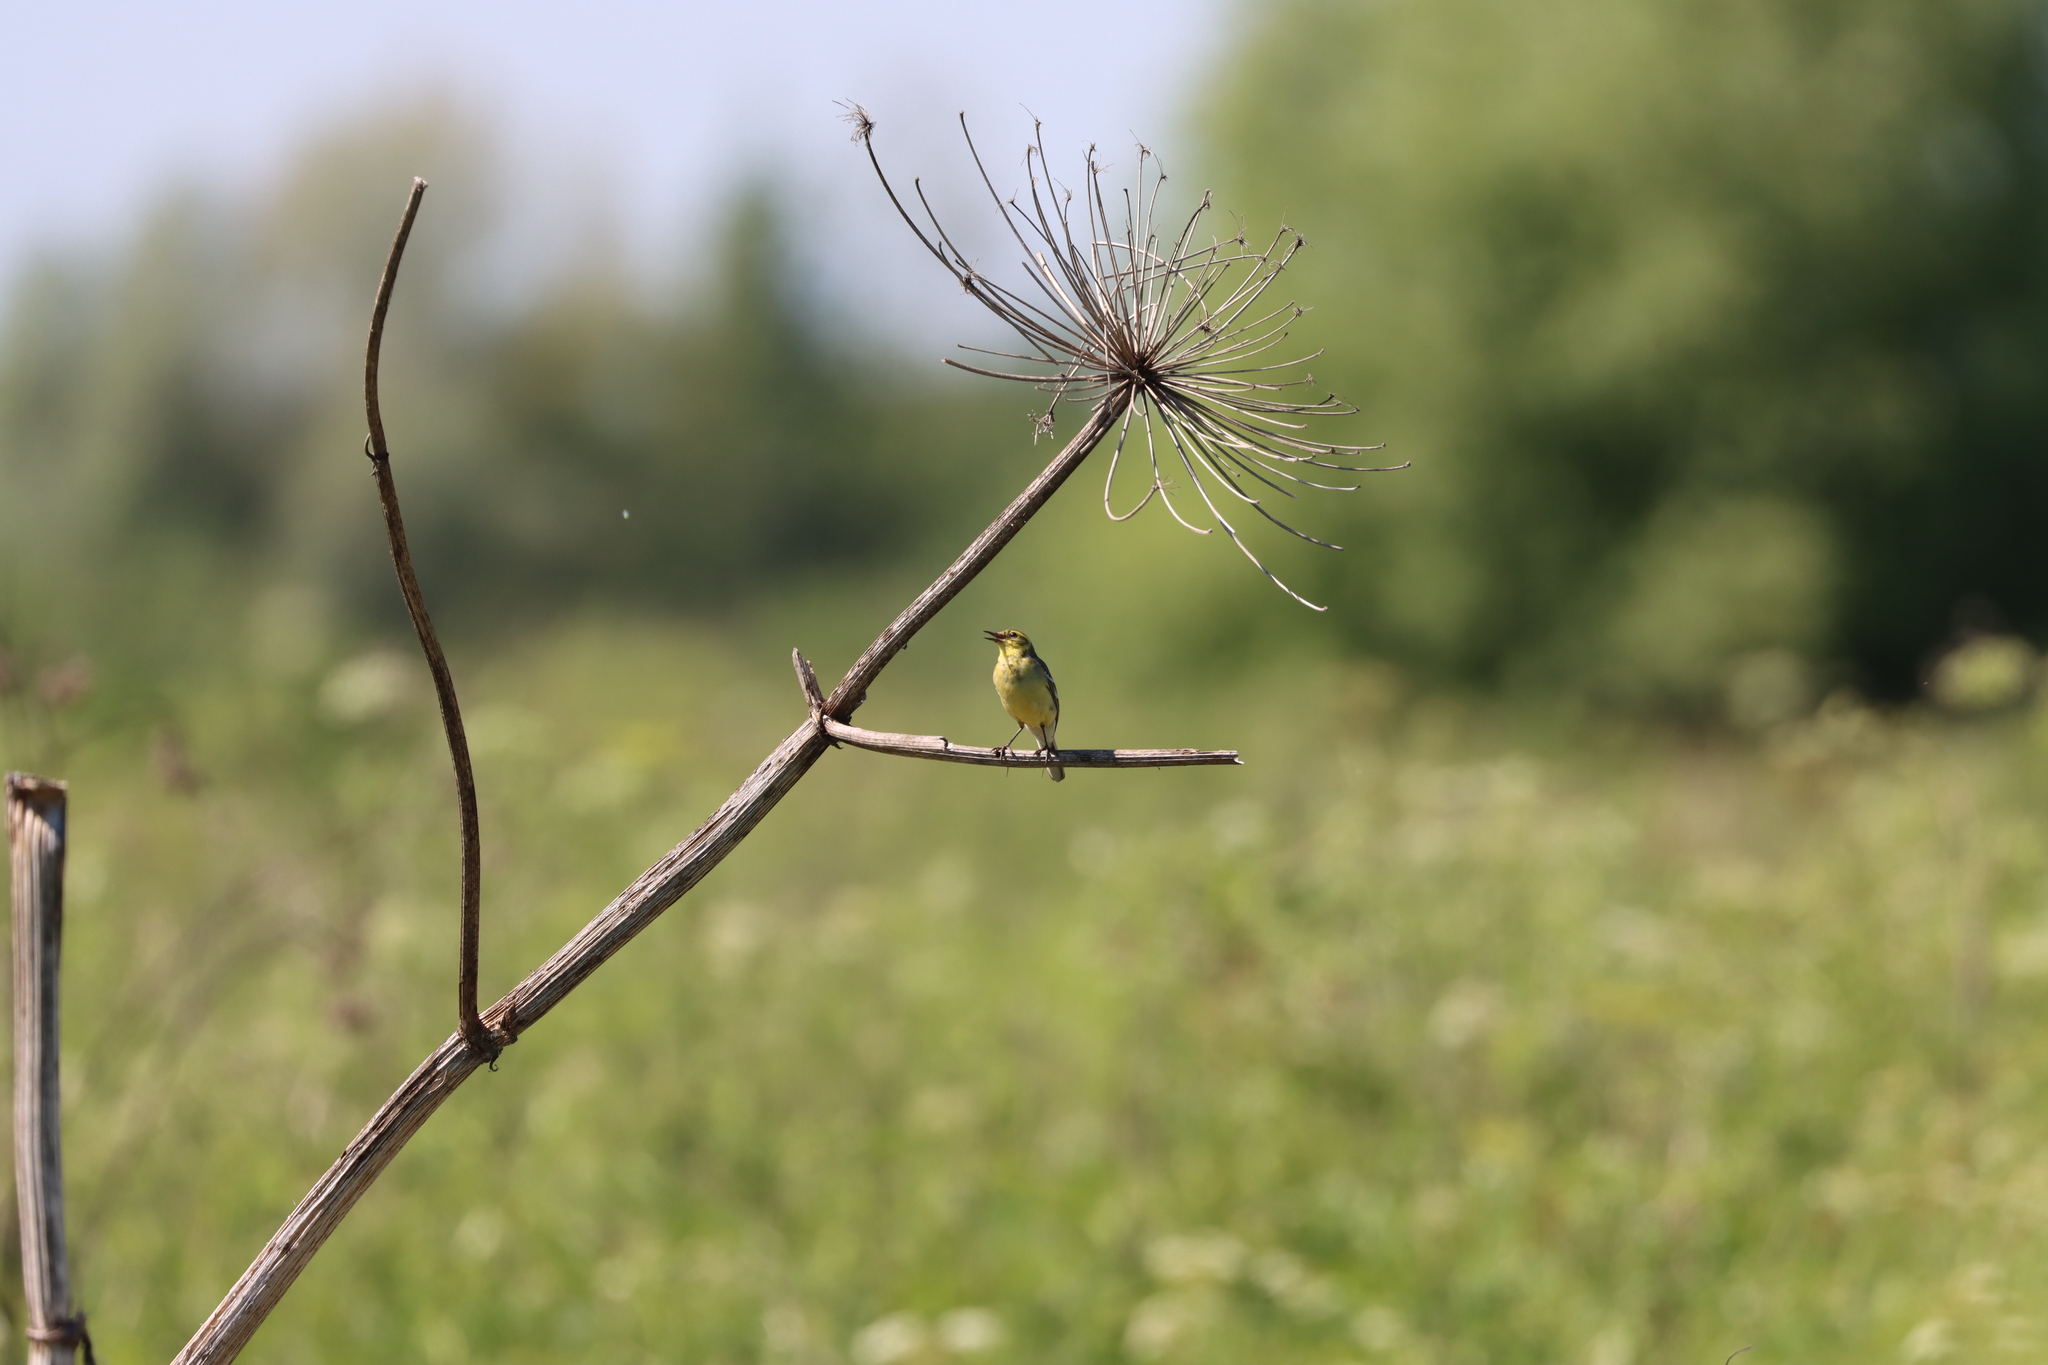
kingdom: Animalia
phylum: Chordata
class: Aves
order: Passeriformes
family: Motacillidae
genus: Motacilla
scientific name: Motacilla citreola
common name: Citrine wagtail
